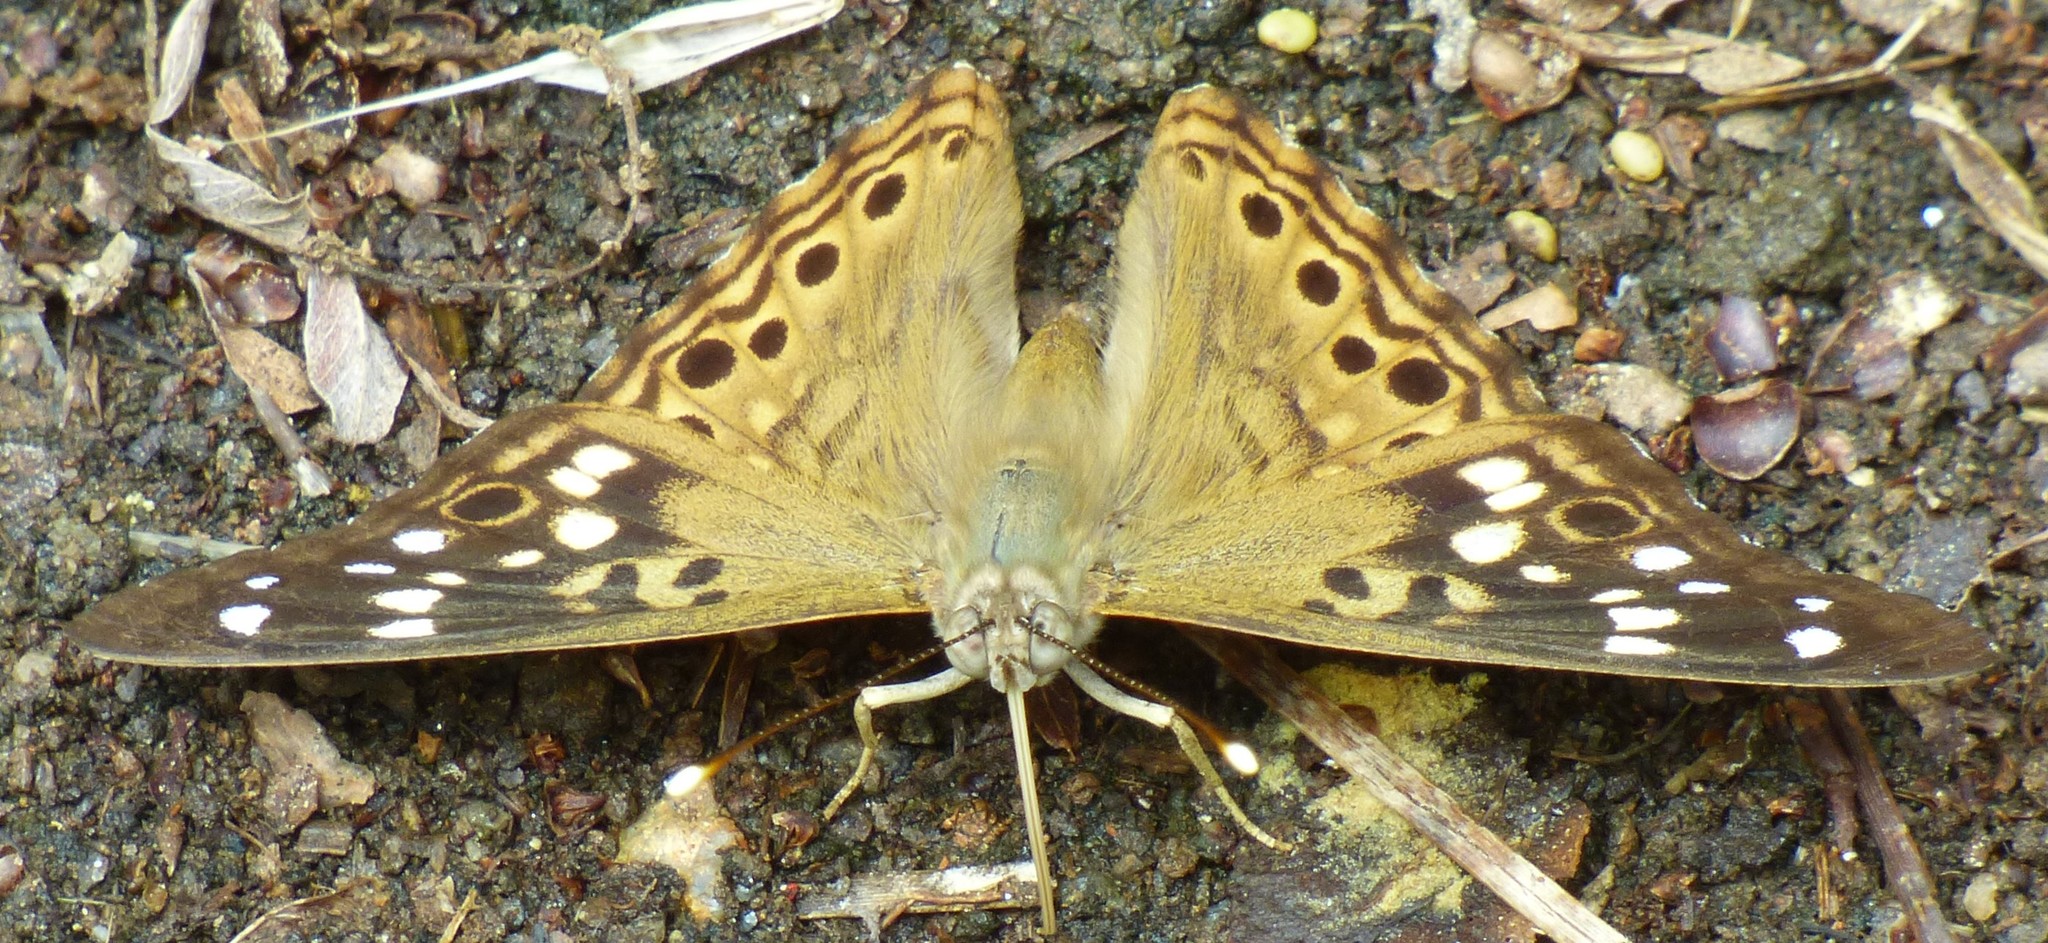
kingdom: Animalia
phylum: Arthropoda
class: Insecta
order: Lepidoptera
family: Nymphalidae
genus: Asterocampa
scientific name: Asterocampa celtis
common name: Hackberry emperor
